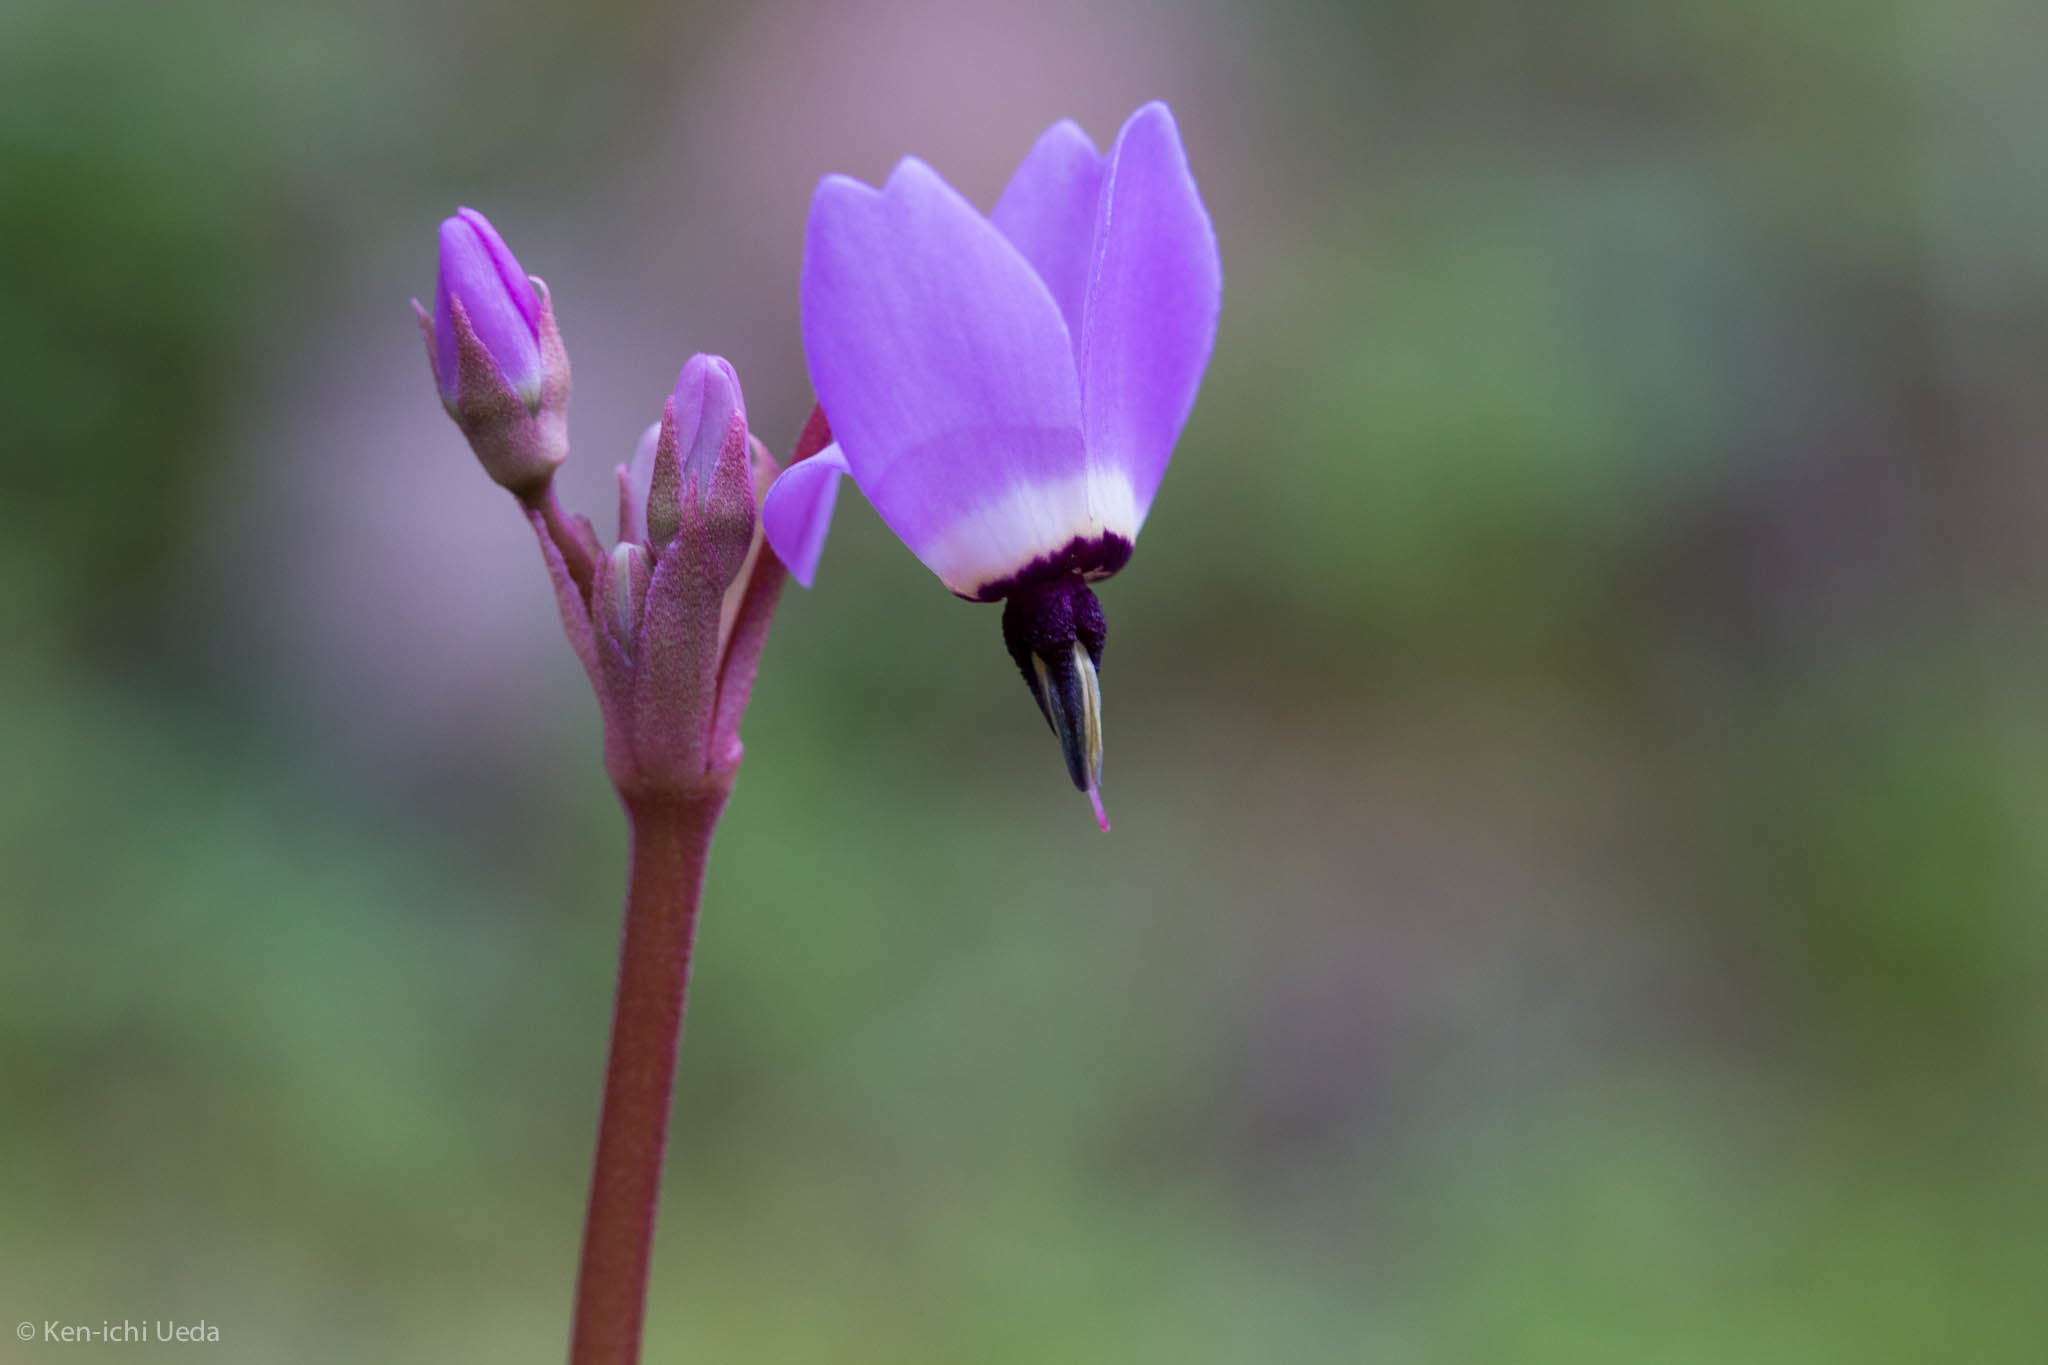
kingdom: Plantae
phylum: Tracheophyta
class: Magnoliopsida
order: Ericales
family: Primulaceae
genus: Dodecatheon
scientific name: Dodecatheon hendersonii
